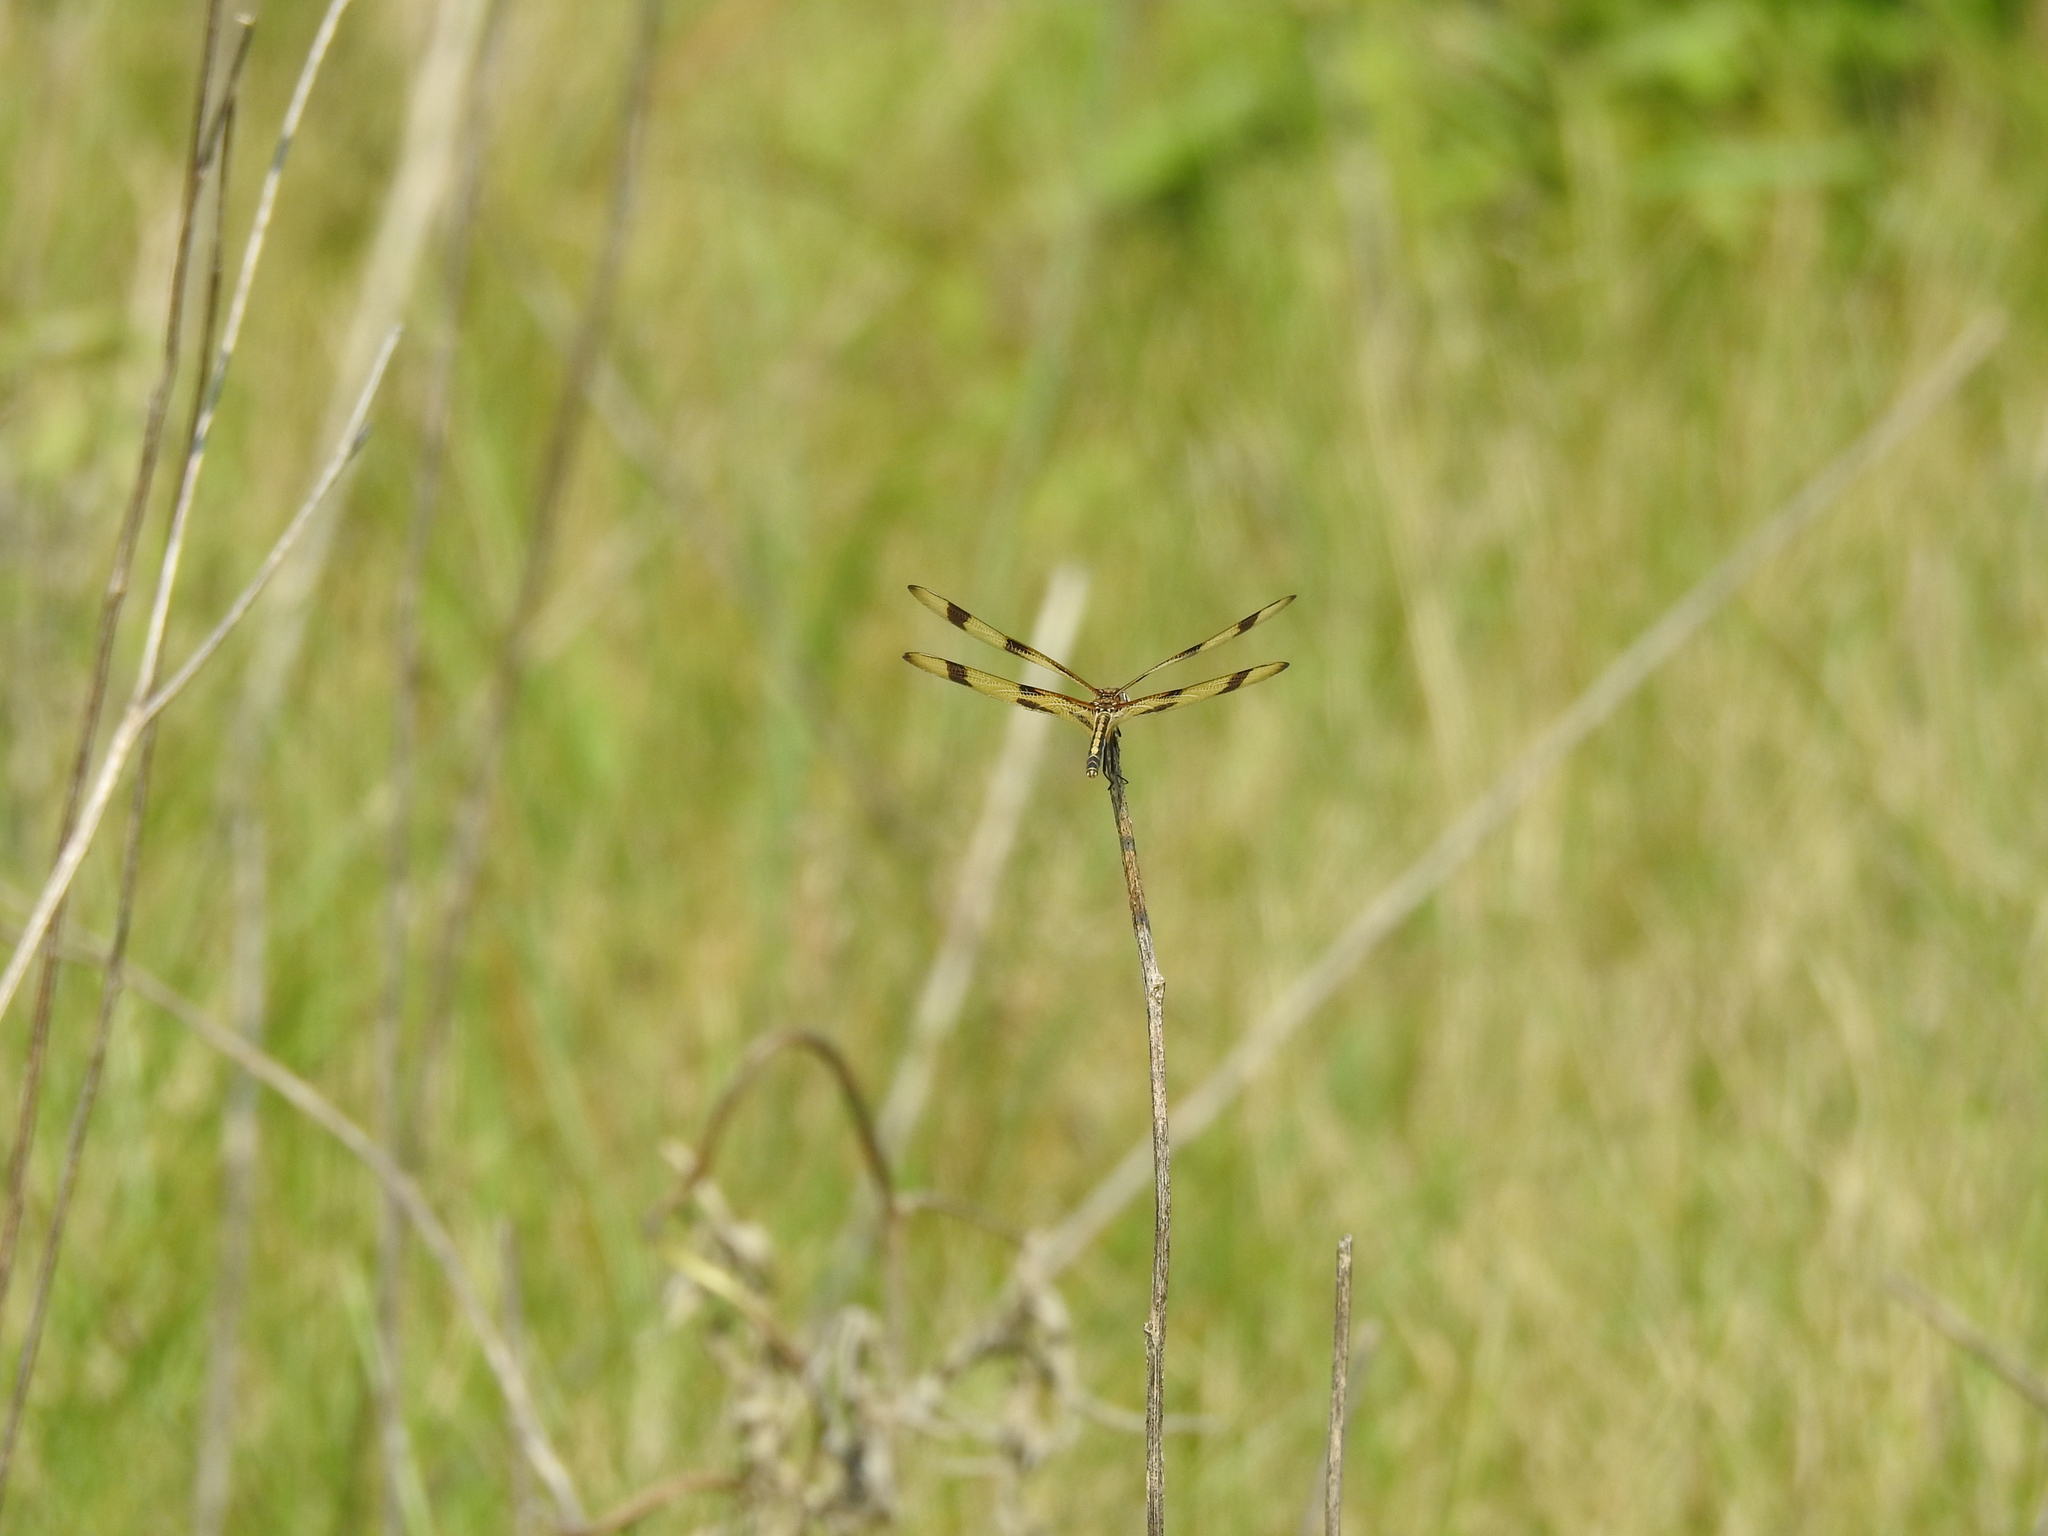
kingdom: Animalia
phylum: Arthropoda
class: Insecta
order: Odonata
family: Libellulidae
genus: Celithemis
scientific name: Celithemis eponina
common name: Halloween pennant
